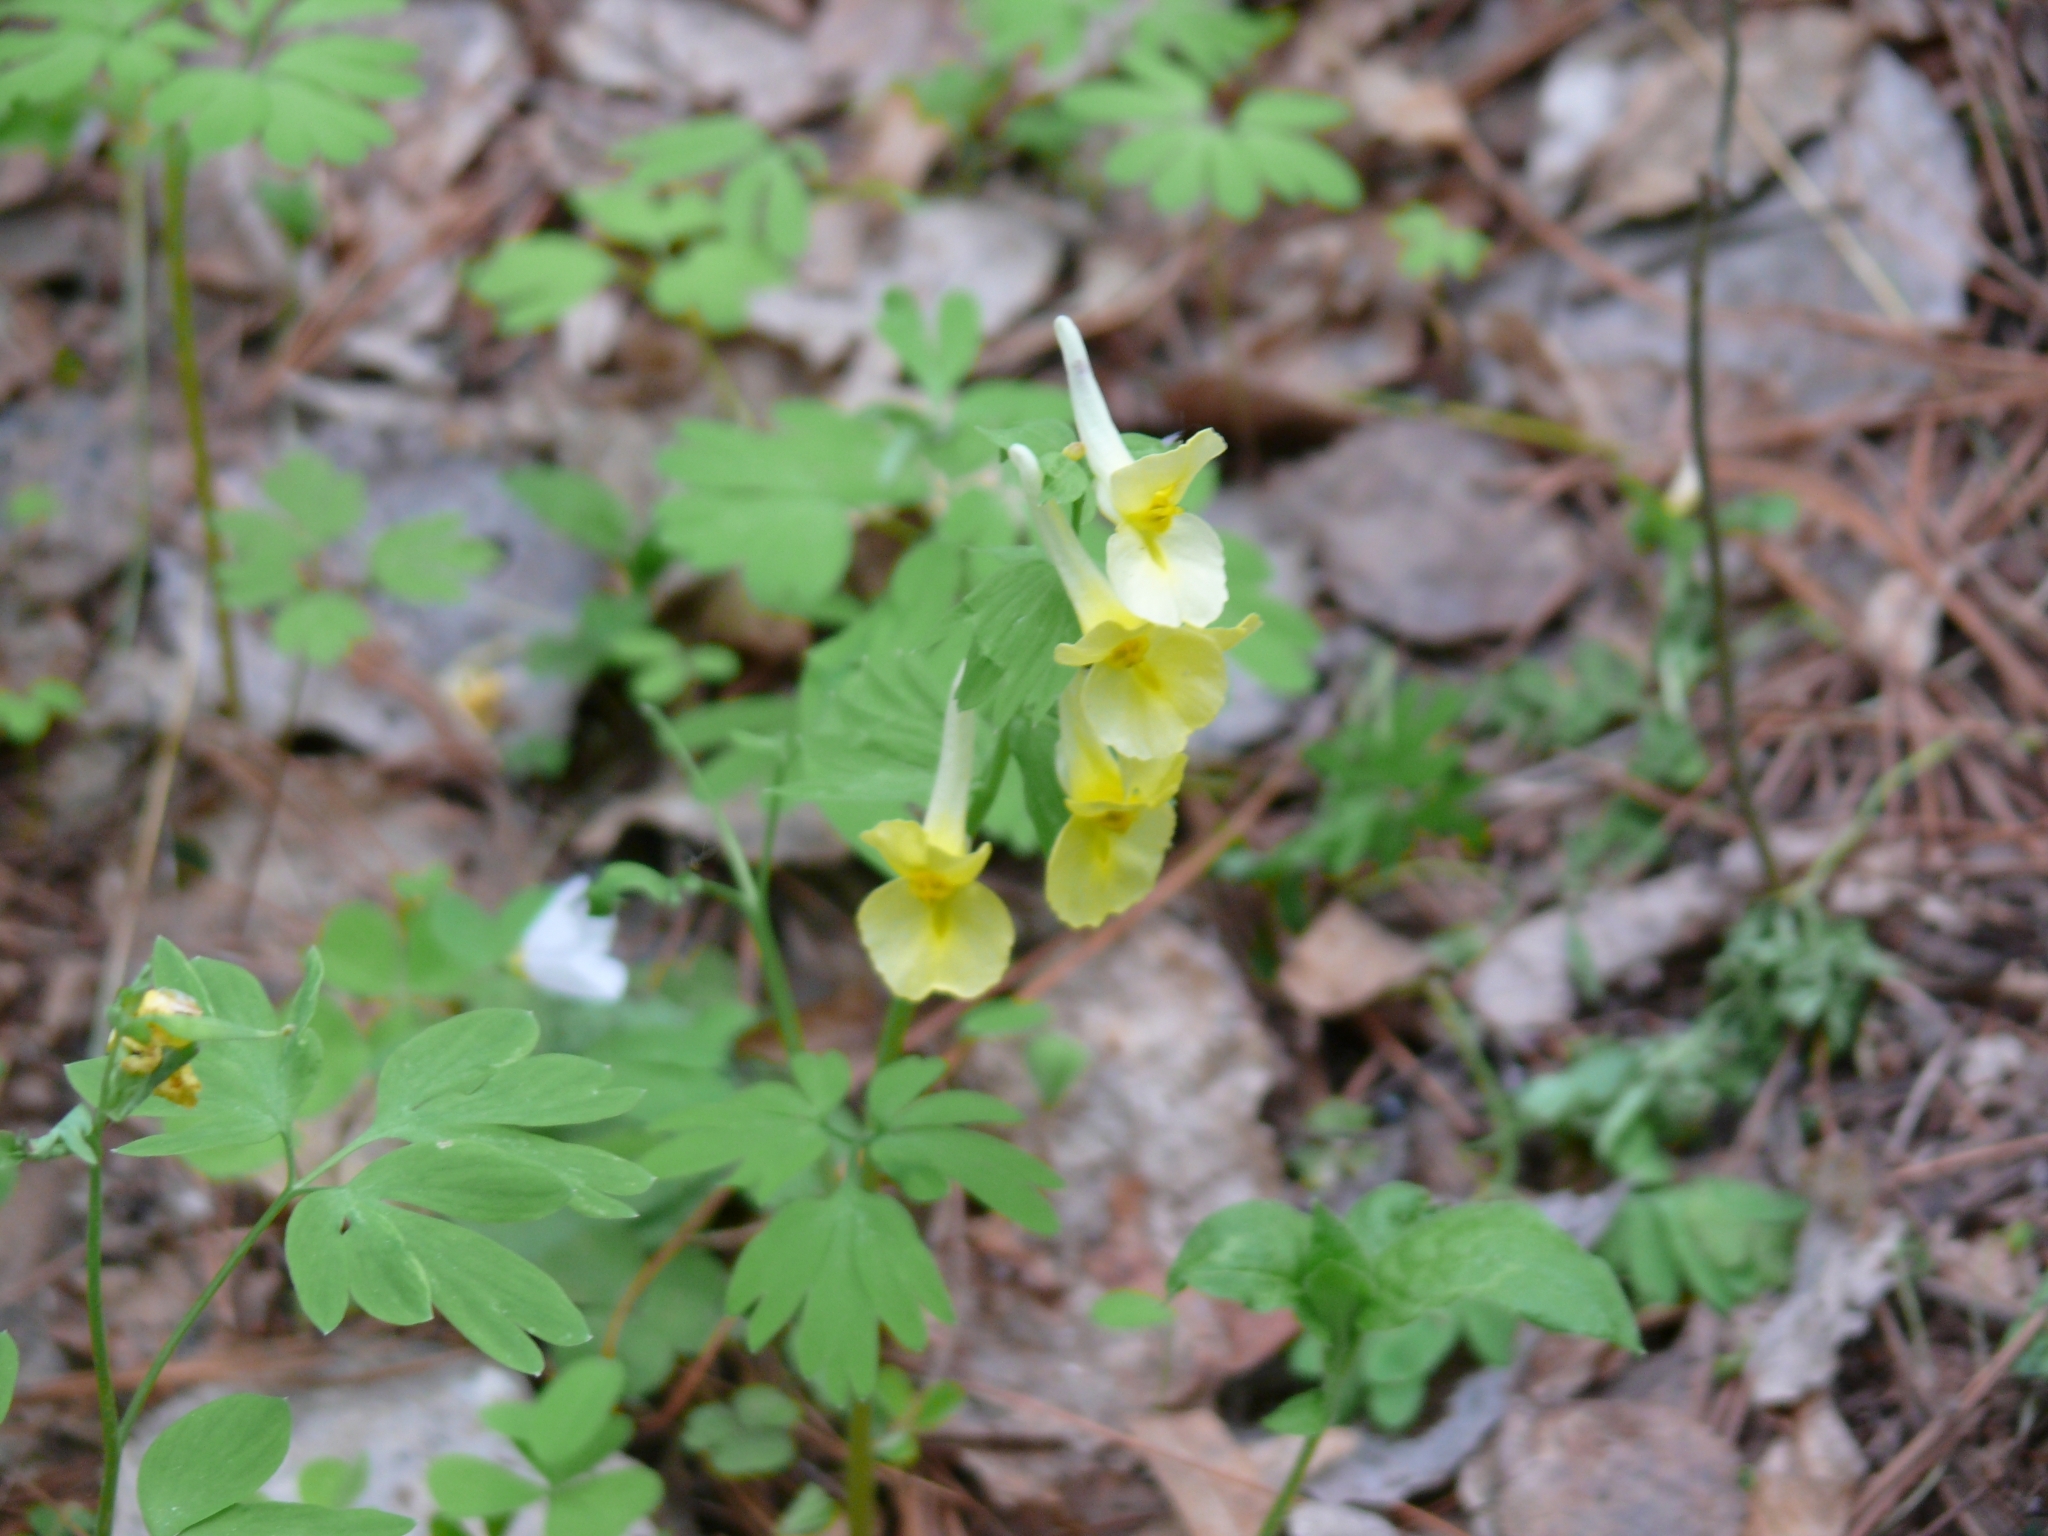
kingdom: Plantae
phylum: Tracheophyta
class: Magnoliopsida
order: Ranunculales
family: Papaveraceae
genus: Corydalis
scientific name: Corydalis bracteata
